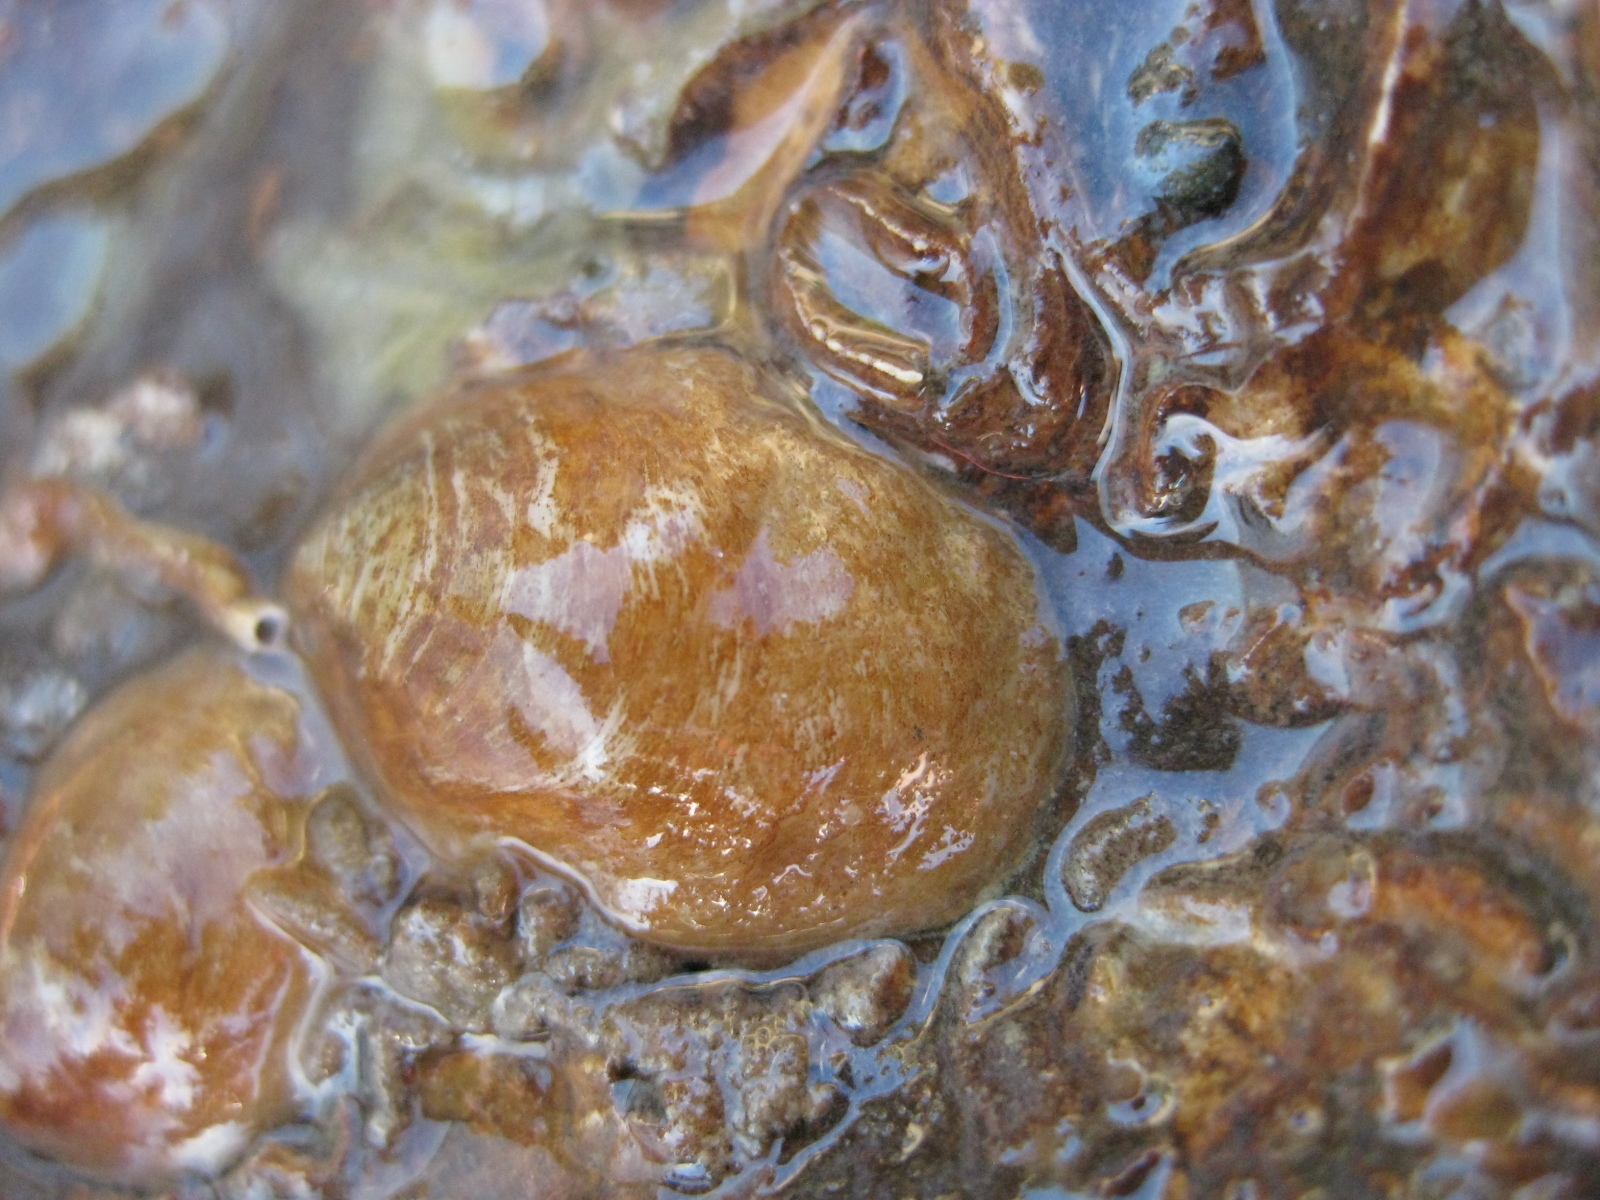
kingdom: Animalia
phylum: Mollusca
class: Gastropoda
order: Littorinimorpha
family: Calyptraeidae
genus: Maoricrypta
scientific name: Maoricrypta monoxyla
